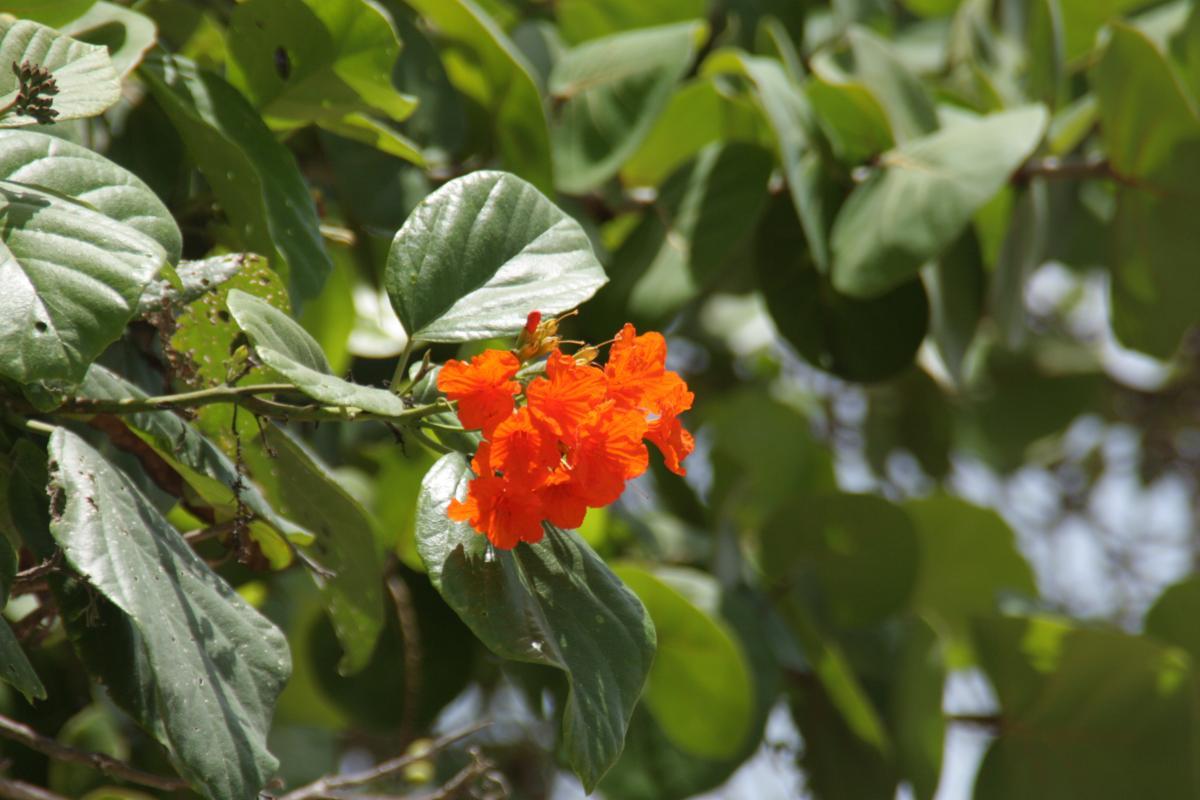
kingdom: Plantae
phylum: Tracheophyta
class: Magnoliopsida
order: Boraginales
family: Cordiaceae
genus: Cordia
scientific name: Cordia sebestena
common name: Largeleaf geigertree
